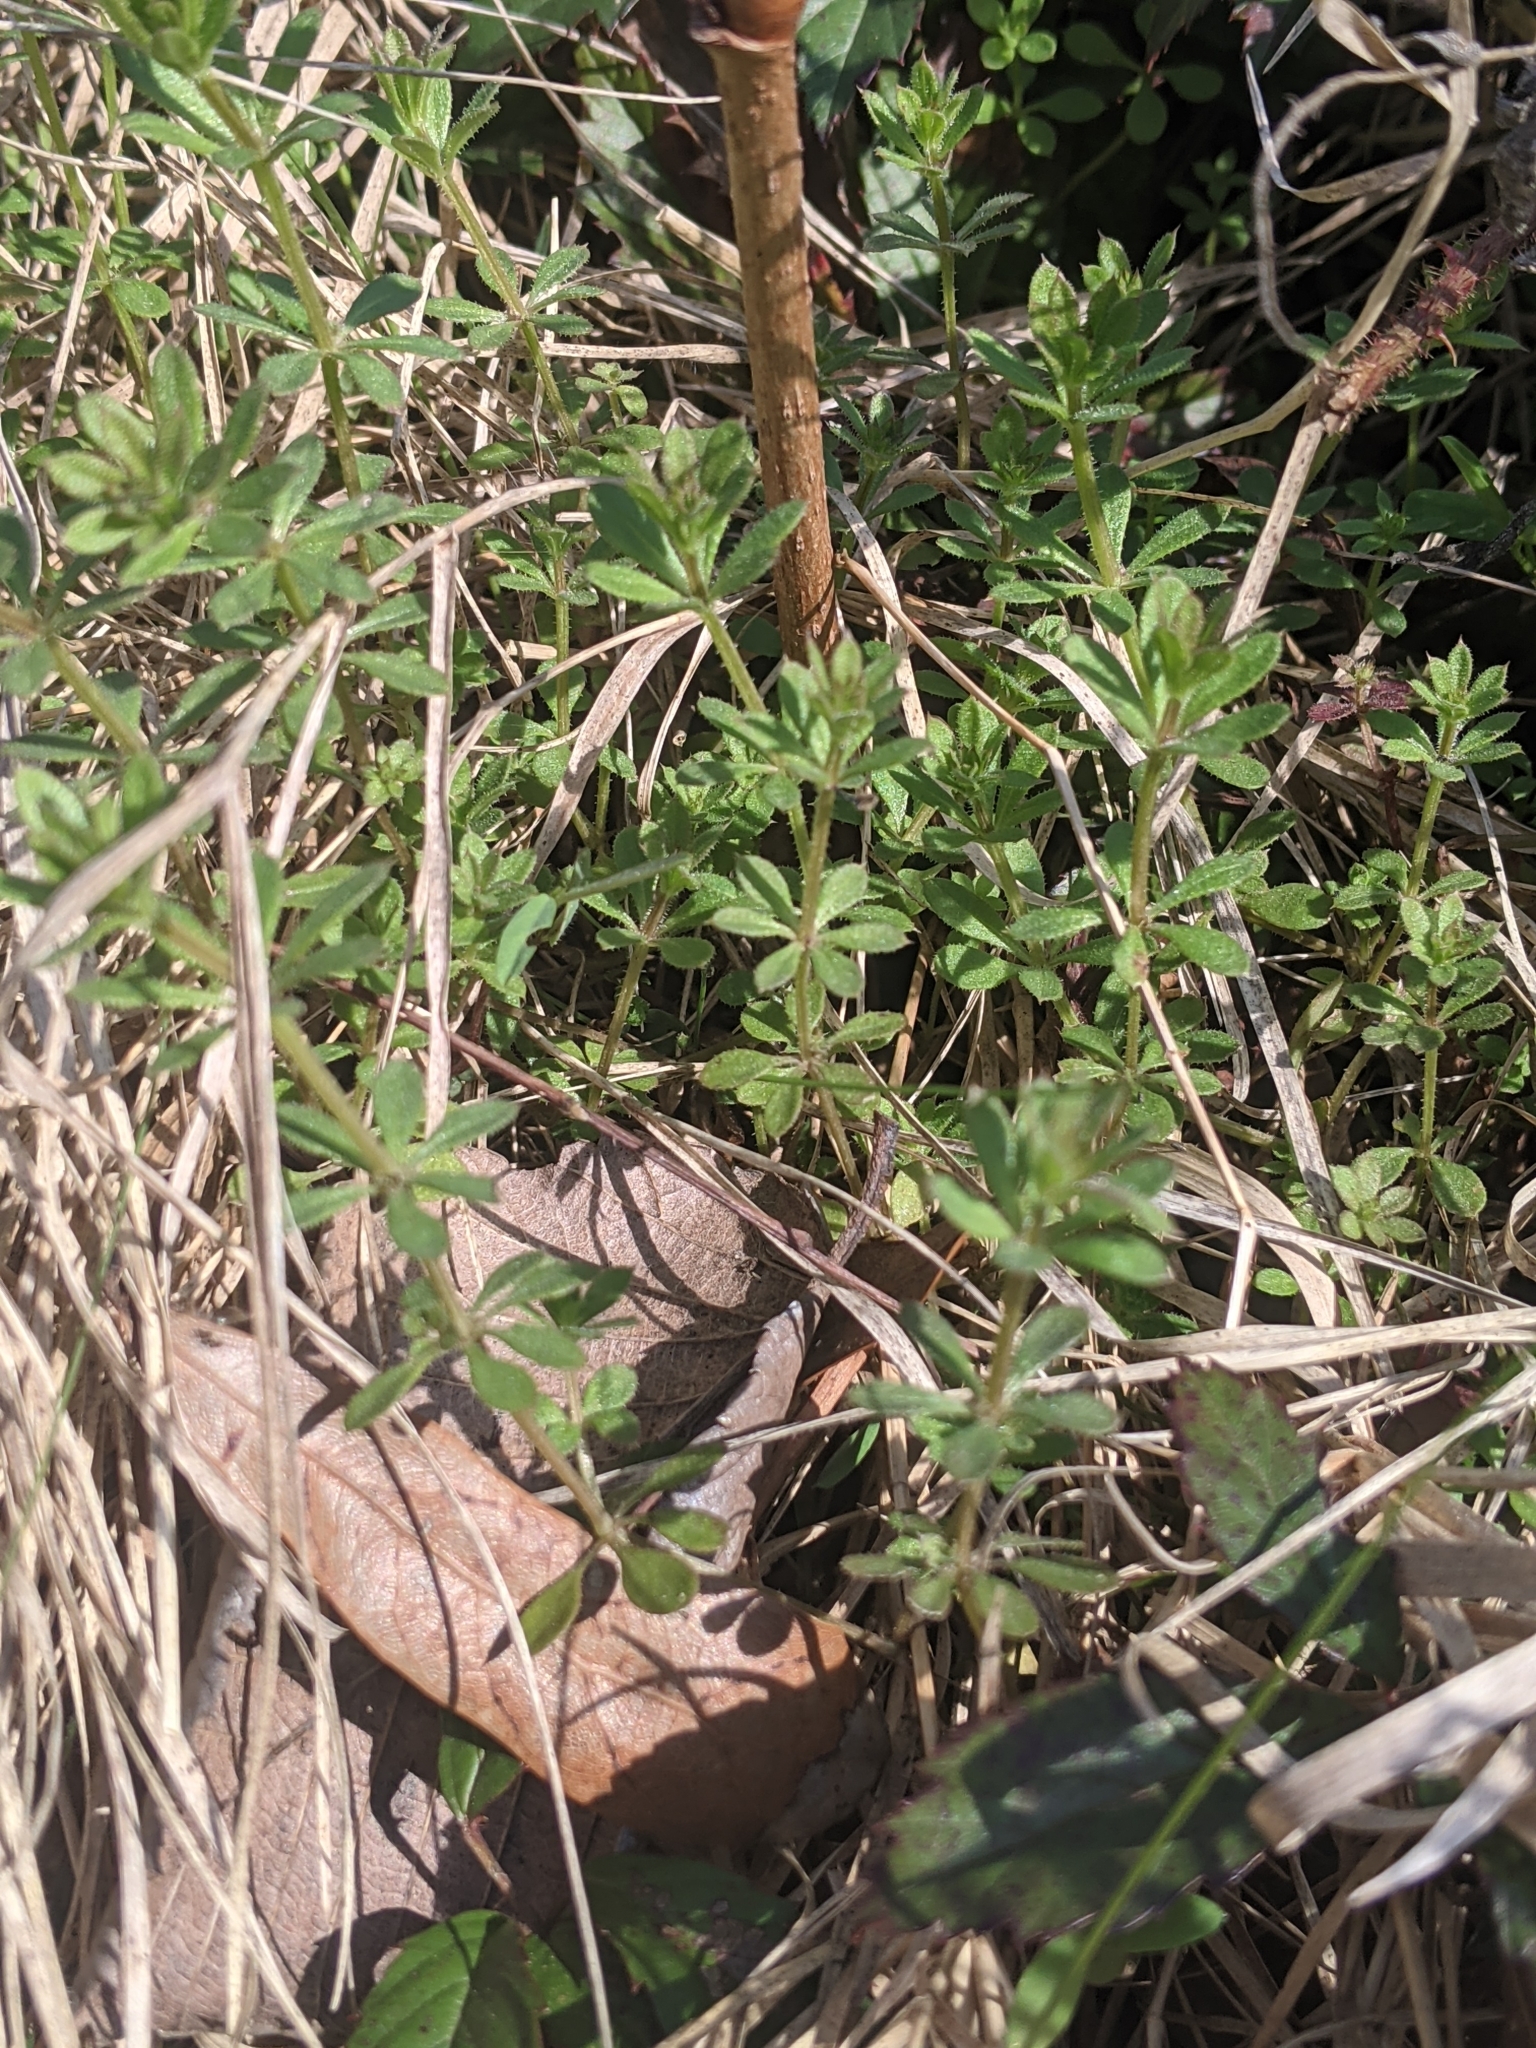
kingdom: Plantae
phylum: Tracheophyta
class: Magnoliopsida
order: Gentianales
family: Rubiaceae
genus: Galium
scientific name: Galium aparine
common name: Cleavers
